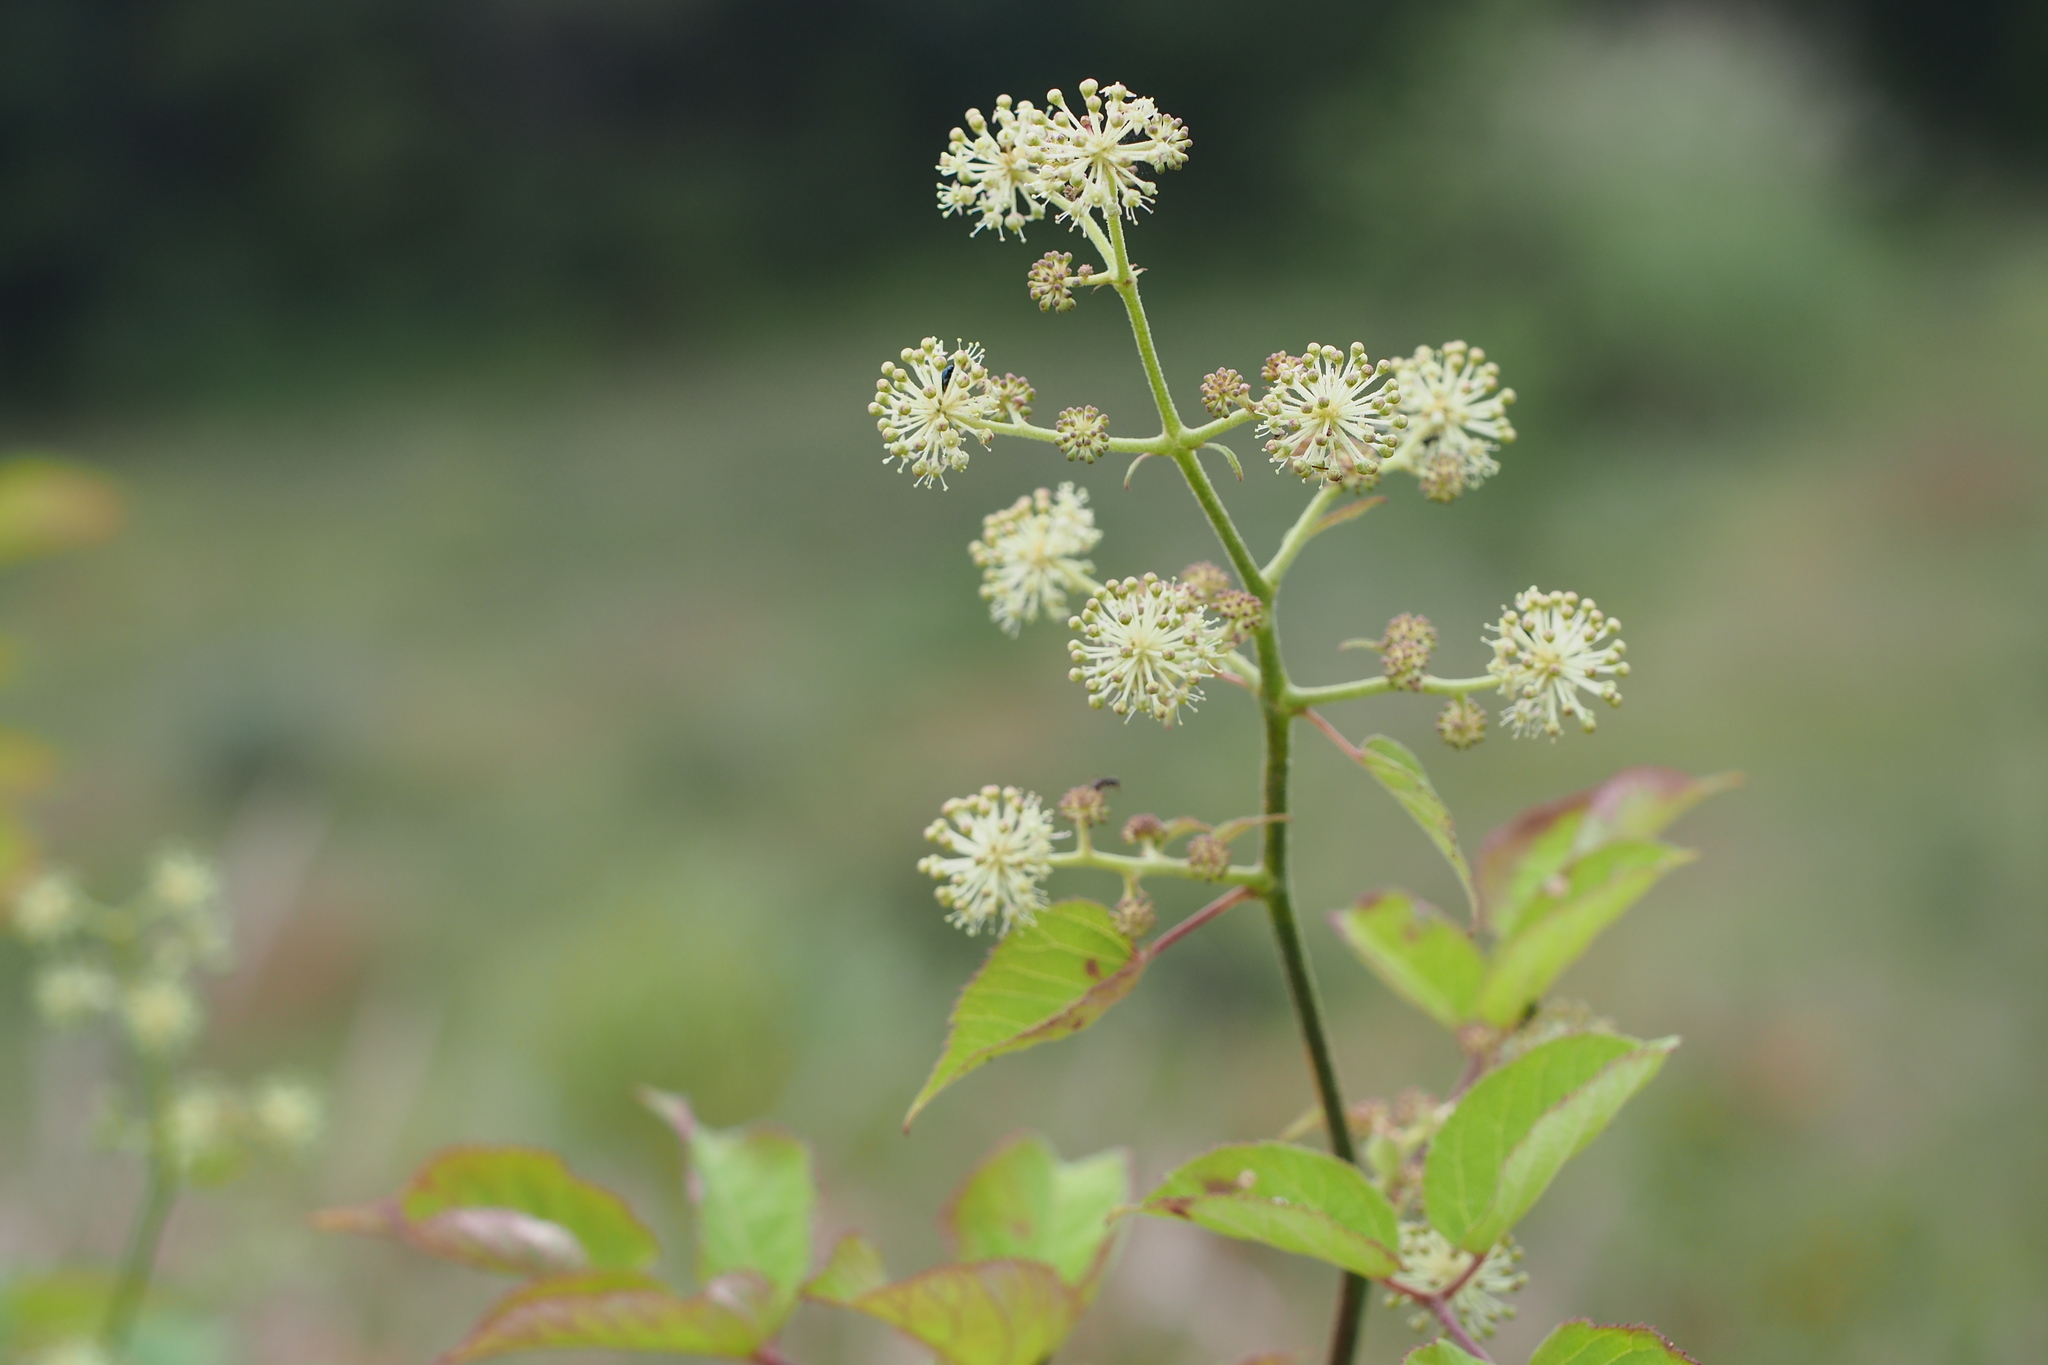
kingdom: Plantae
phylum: Tracheophyta
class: Magnoliopsida
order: Apiales
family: Araliaceae
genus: Aralia
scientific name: Aralia cordata
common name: Udo
